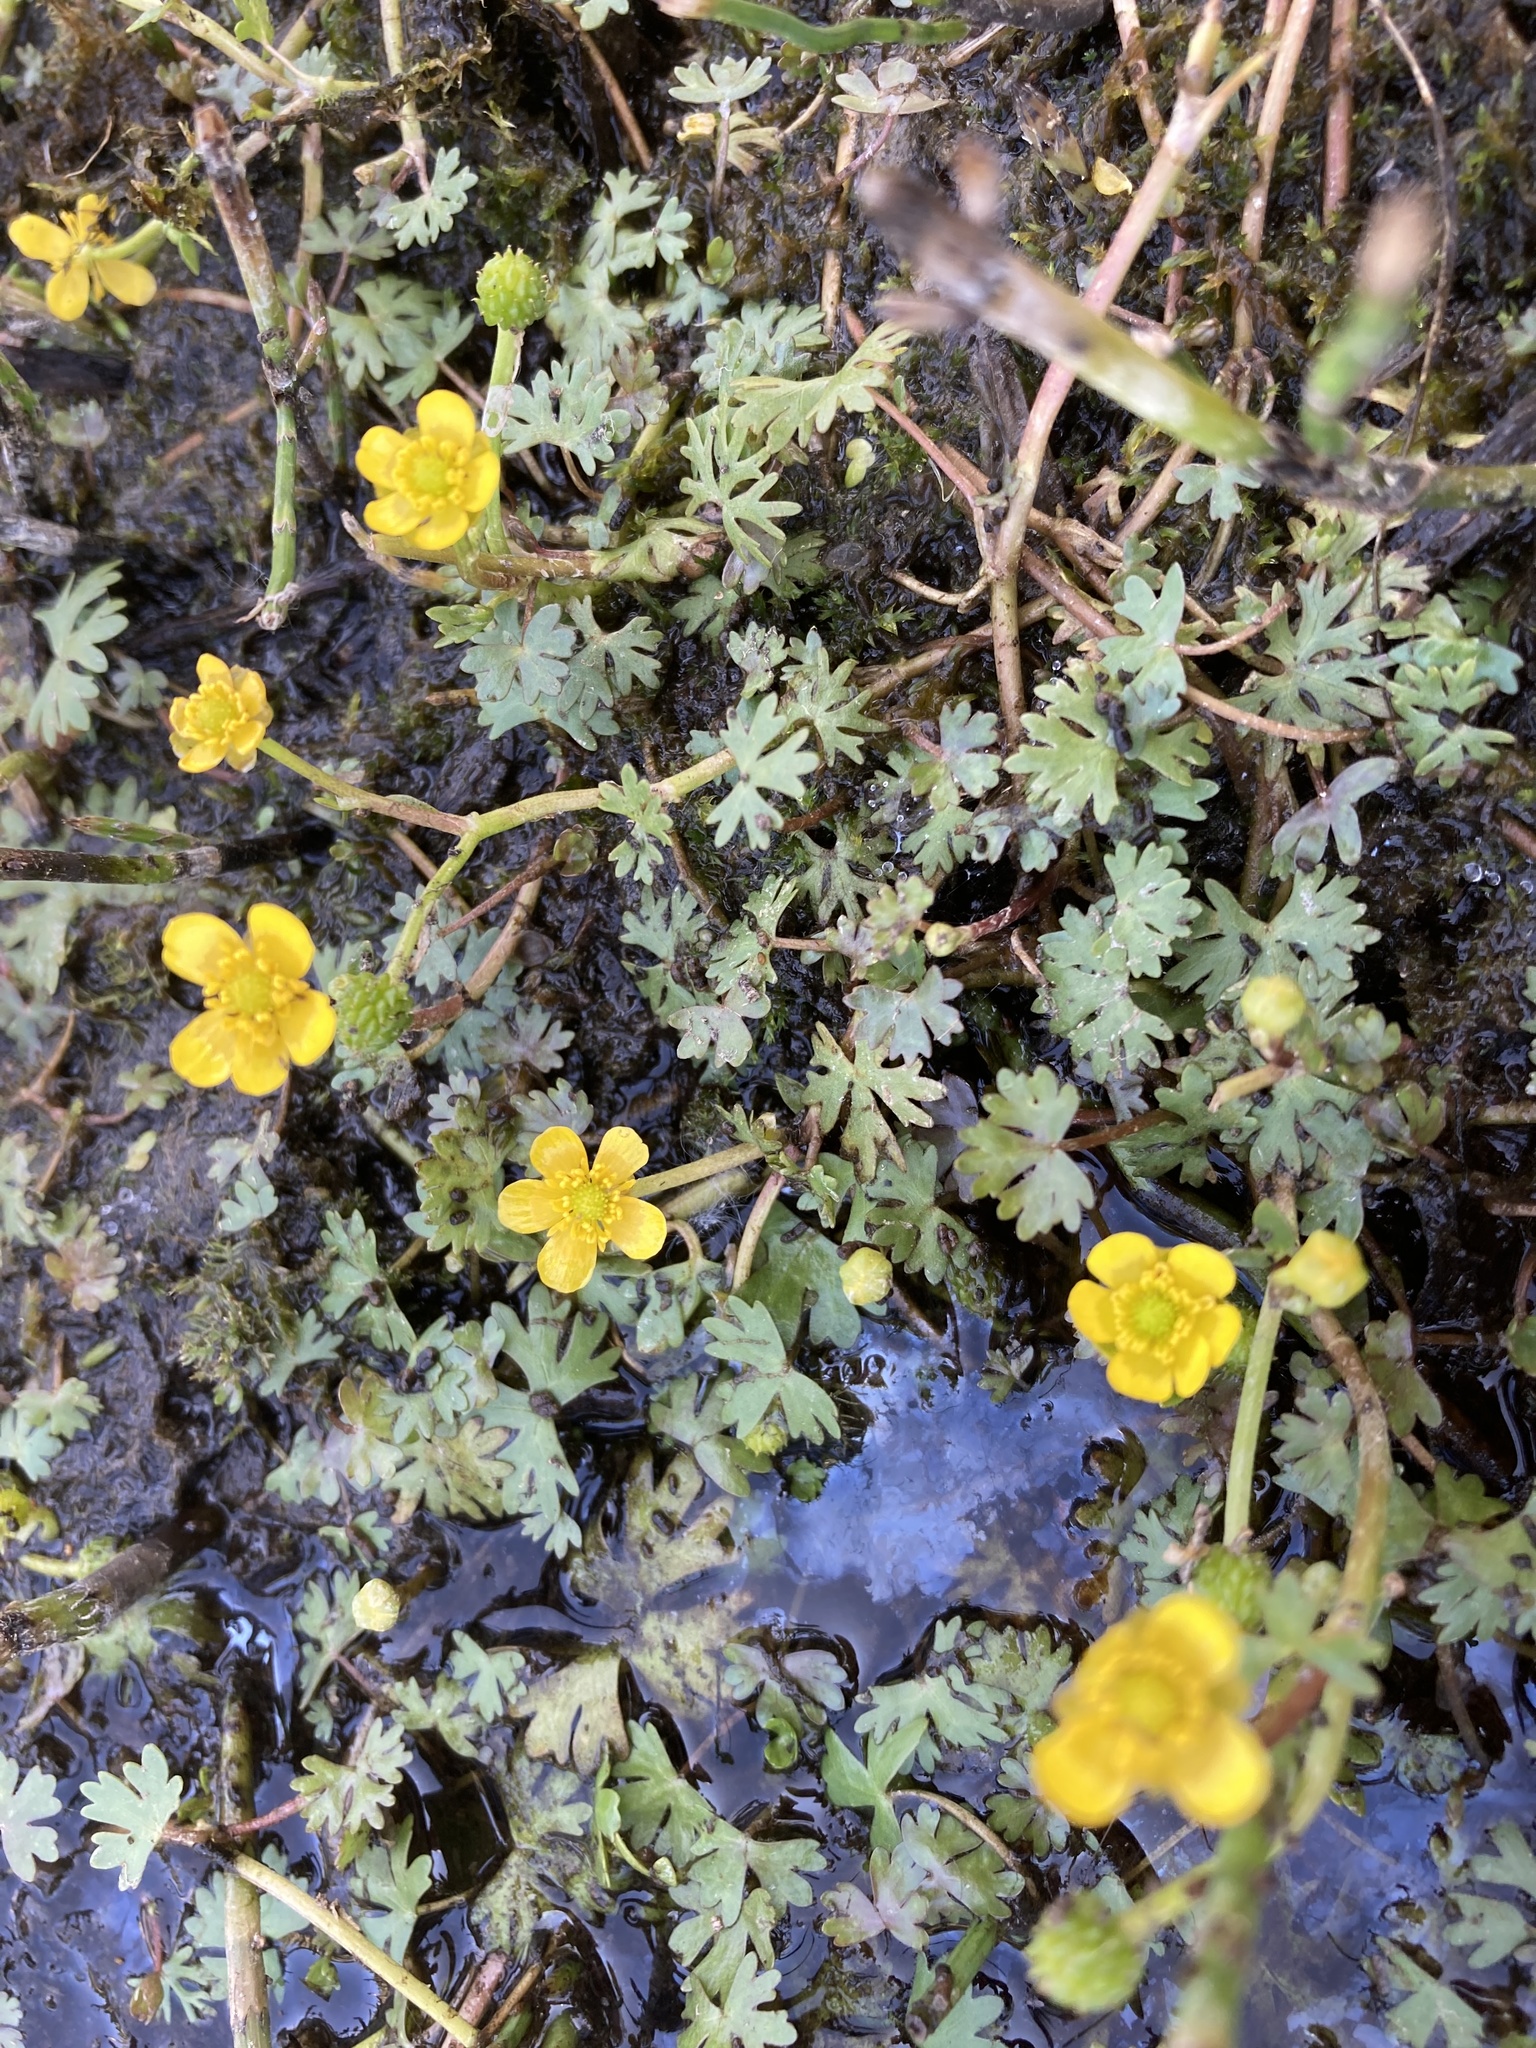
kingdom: Plantae
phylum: Tracheophyta
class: Magnoliopsida
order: Ranunculales
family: Ranunculaceae
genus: Ranunculus
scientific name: Ranunculus gmelinii
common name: Gmelin's buttercup
